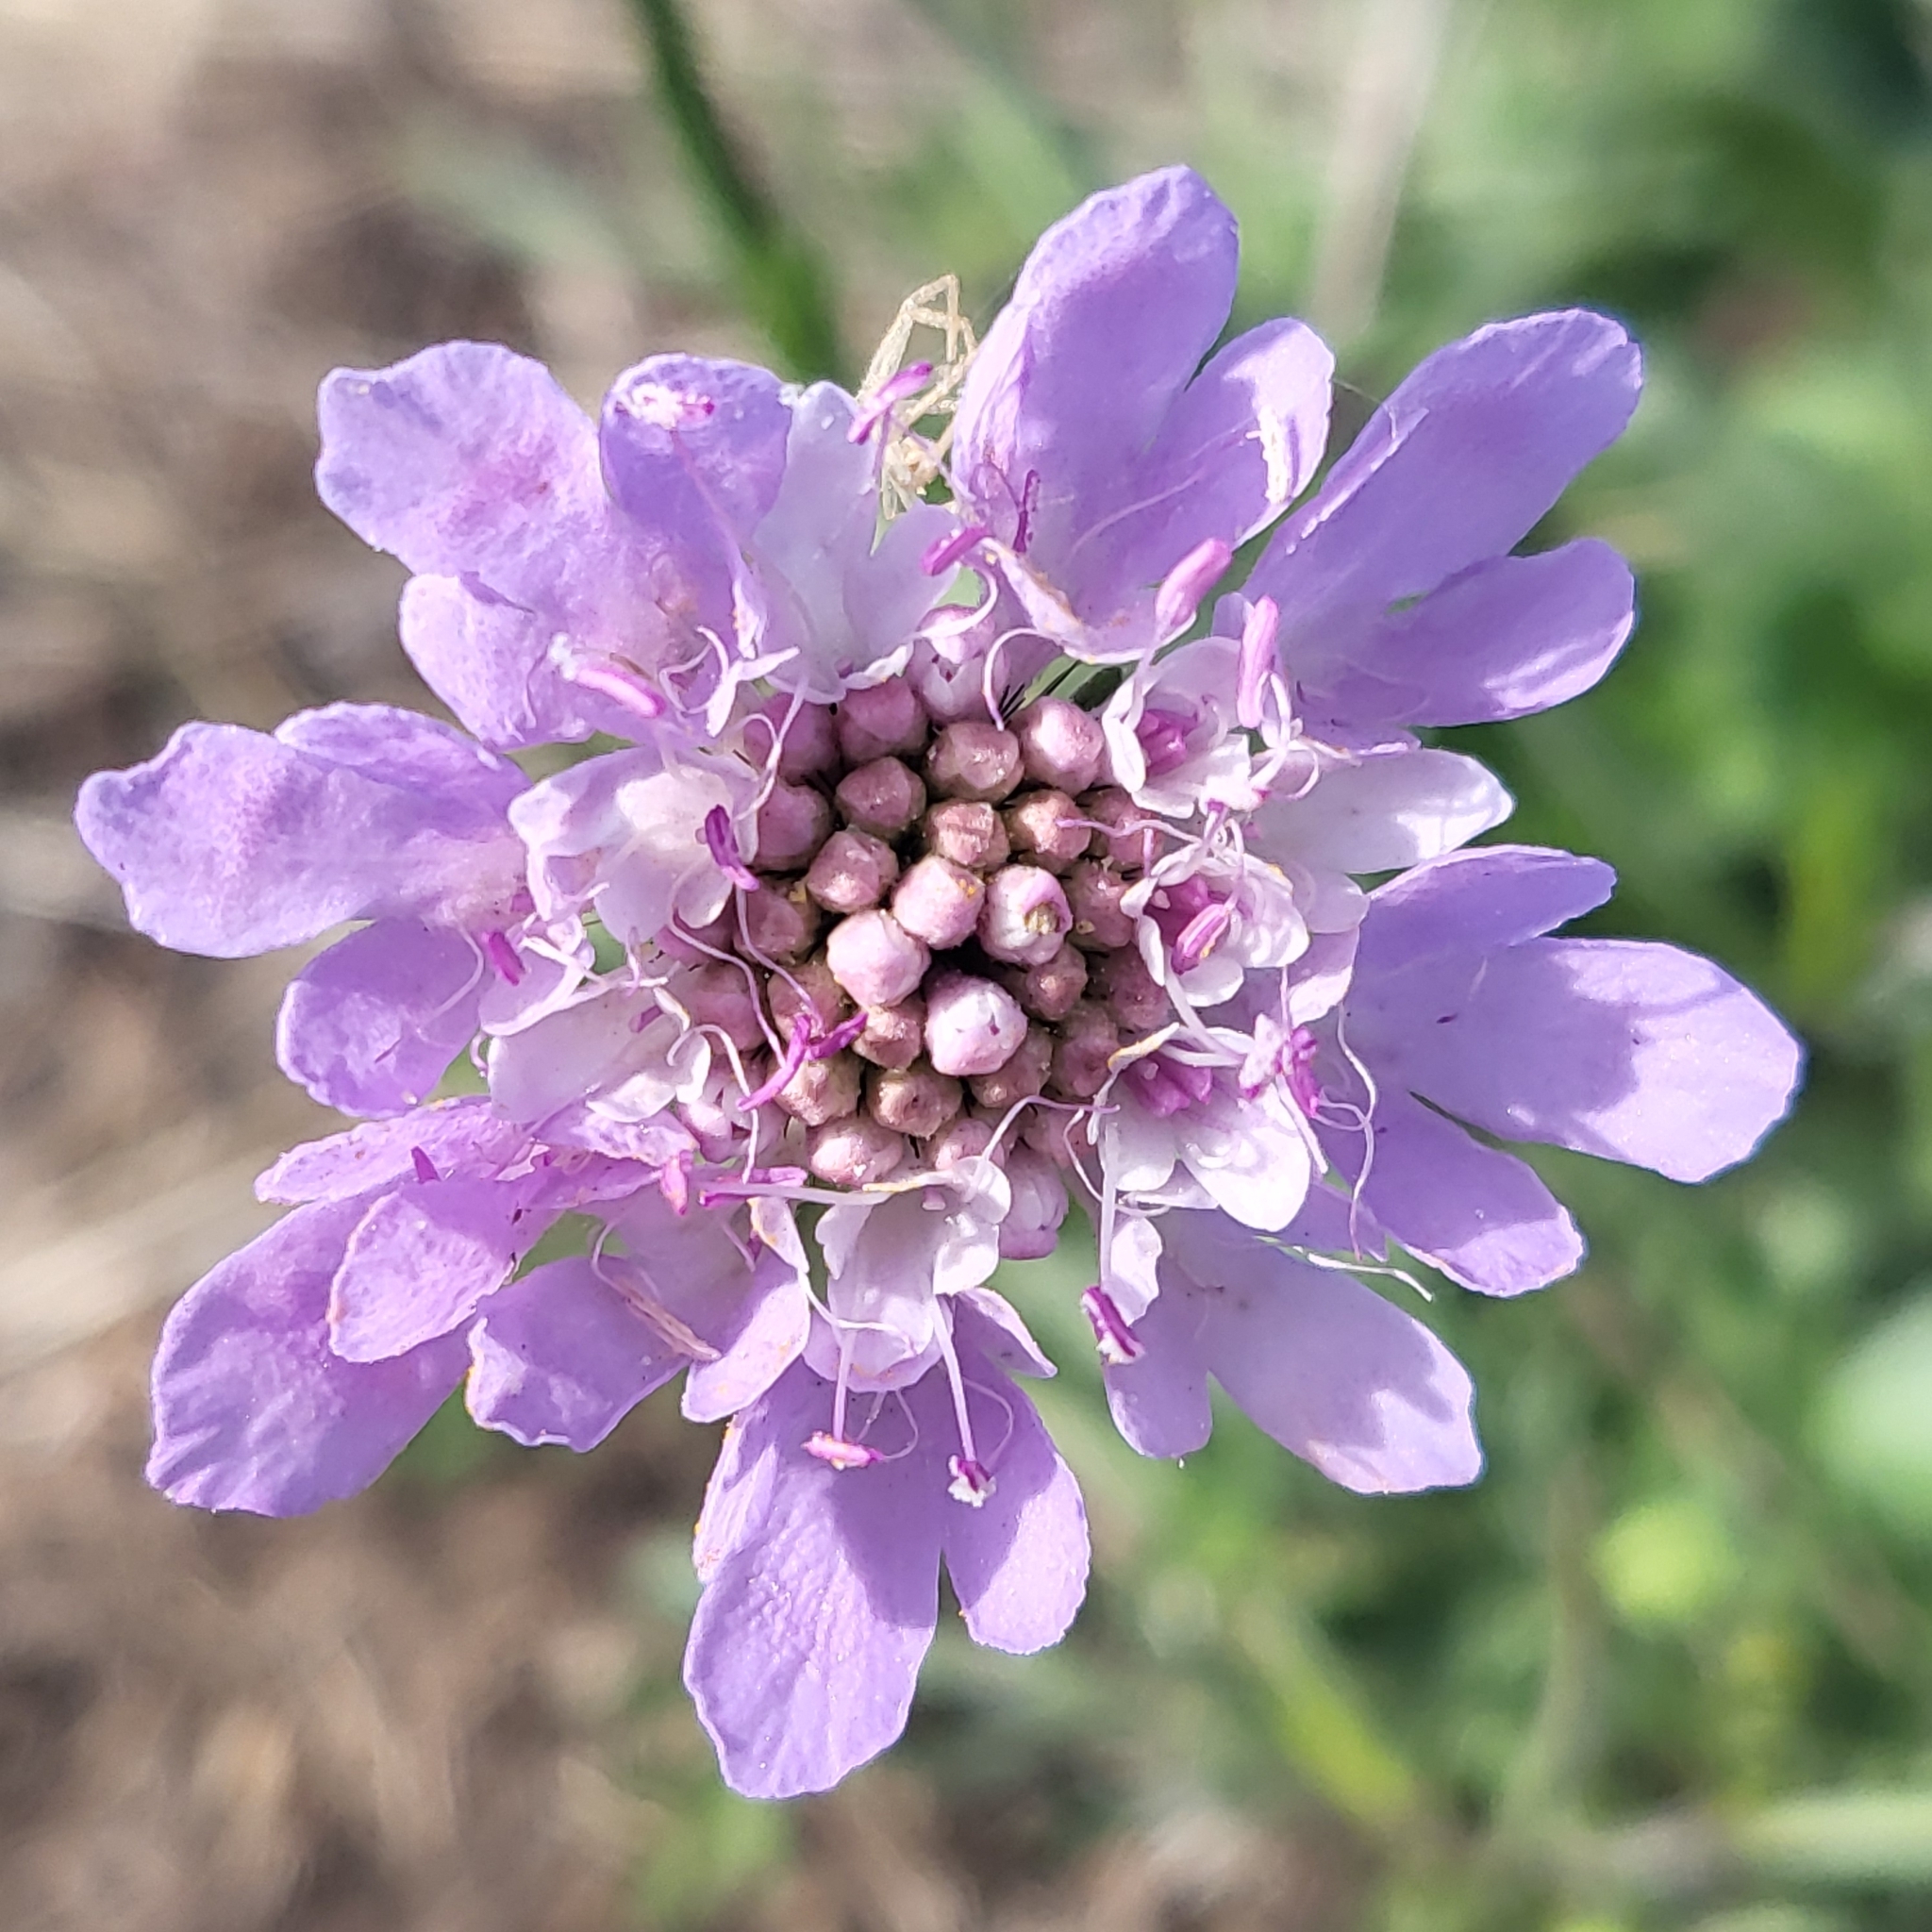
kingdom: Plantae
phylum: Tracheophyta
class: Magnoliopsida
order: Dipsacales
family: Caprifoliaceae
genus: Scabiosa
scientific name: Scabiosa columbaria
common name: Small scabious
